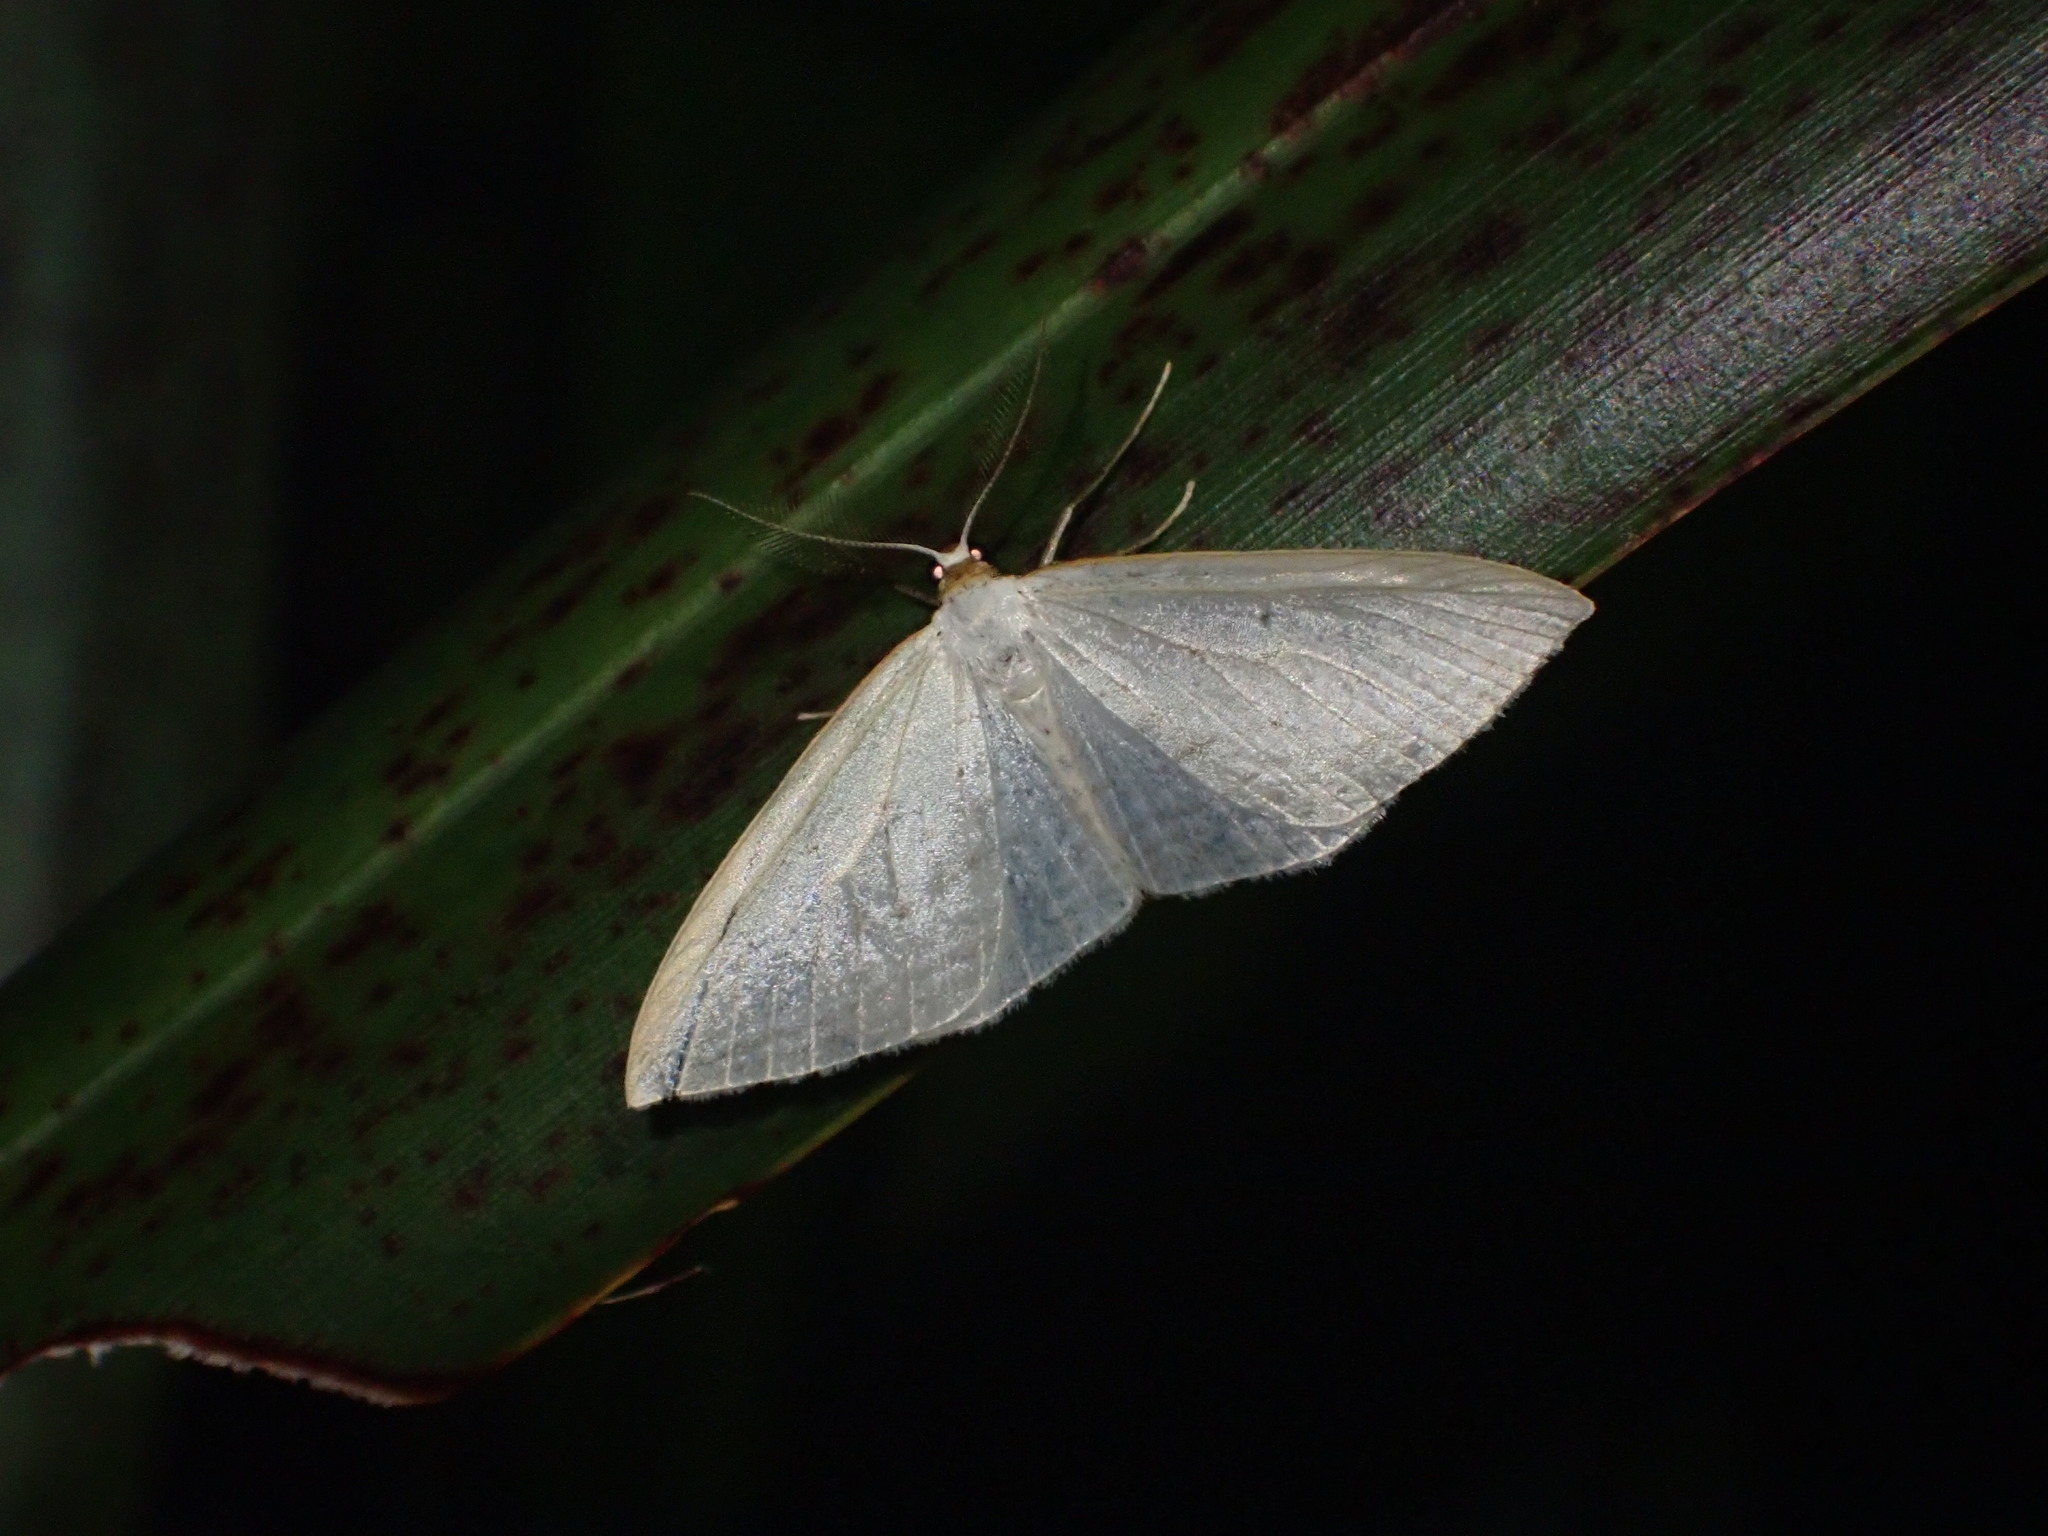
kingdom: Animalia
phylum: Arthropoda
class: Insecta
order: Lepidoptera
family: Geometridae
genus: Orthoclydon
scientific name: Orthoclydon praefectata
